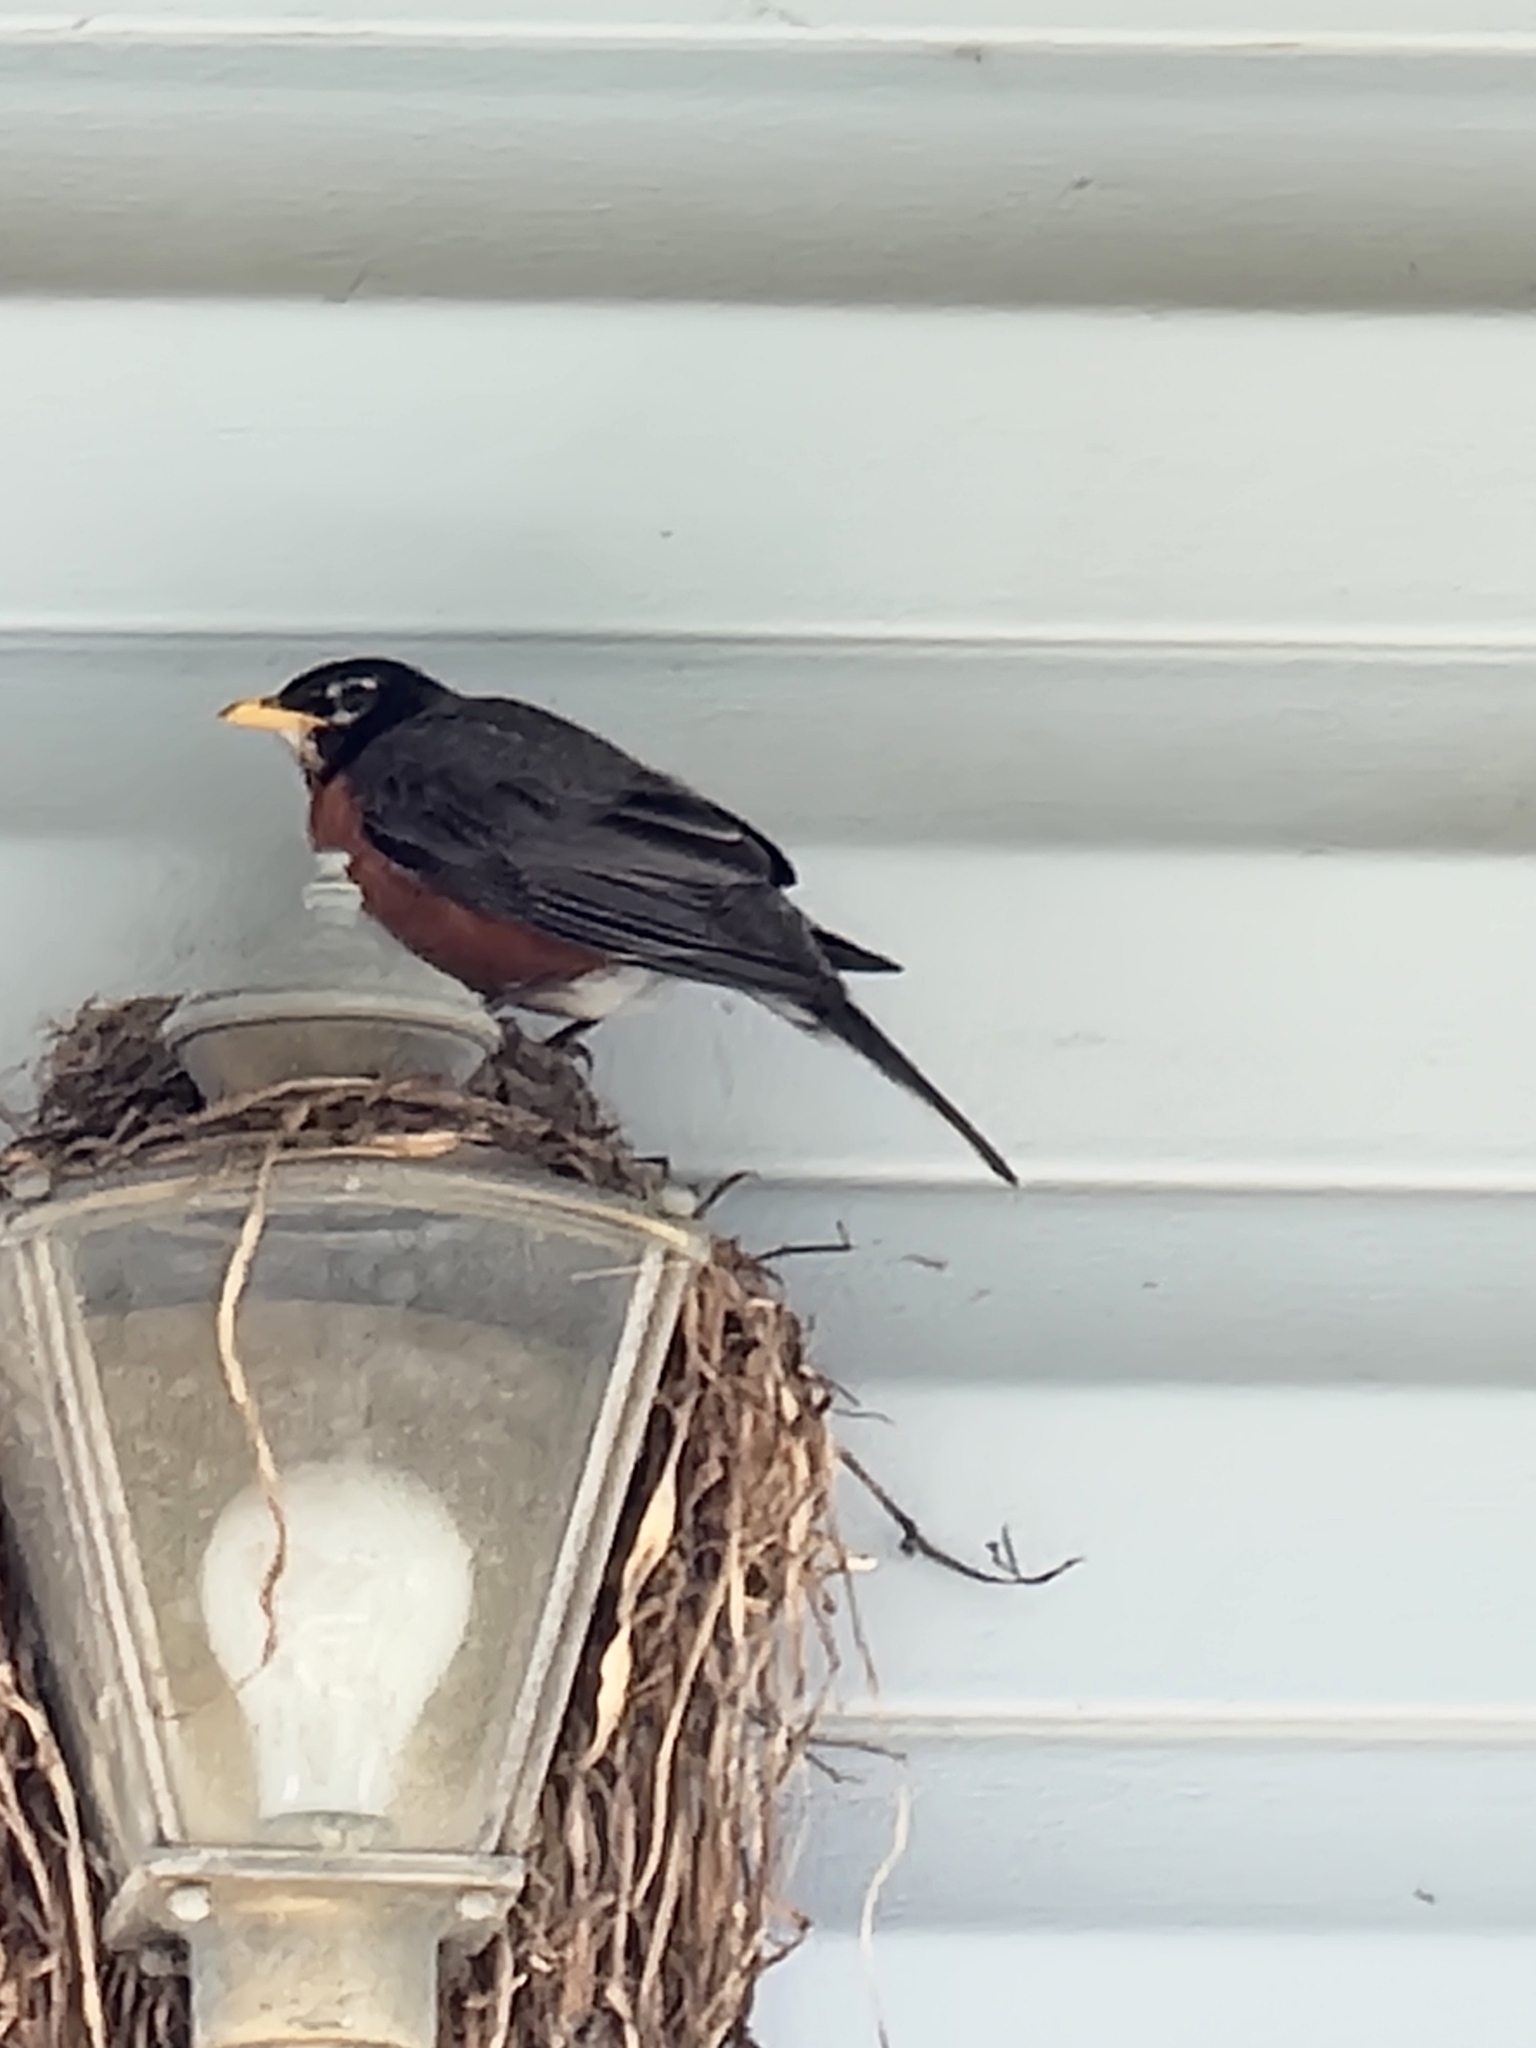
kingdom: Animalia
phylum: Chordata
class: Aves
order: Passeriformes
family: Turdidae
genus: Turdus
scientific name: Turdus migratorius
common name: American robin
